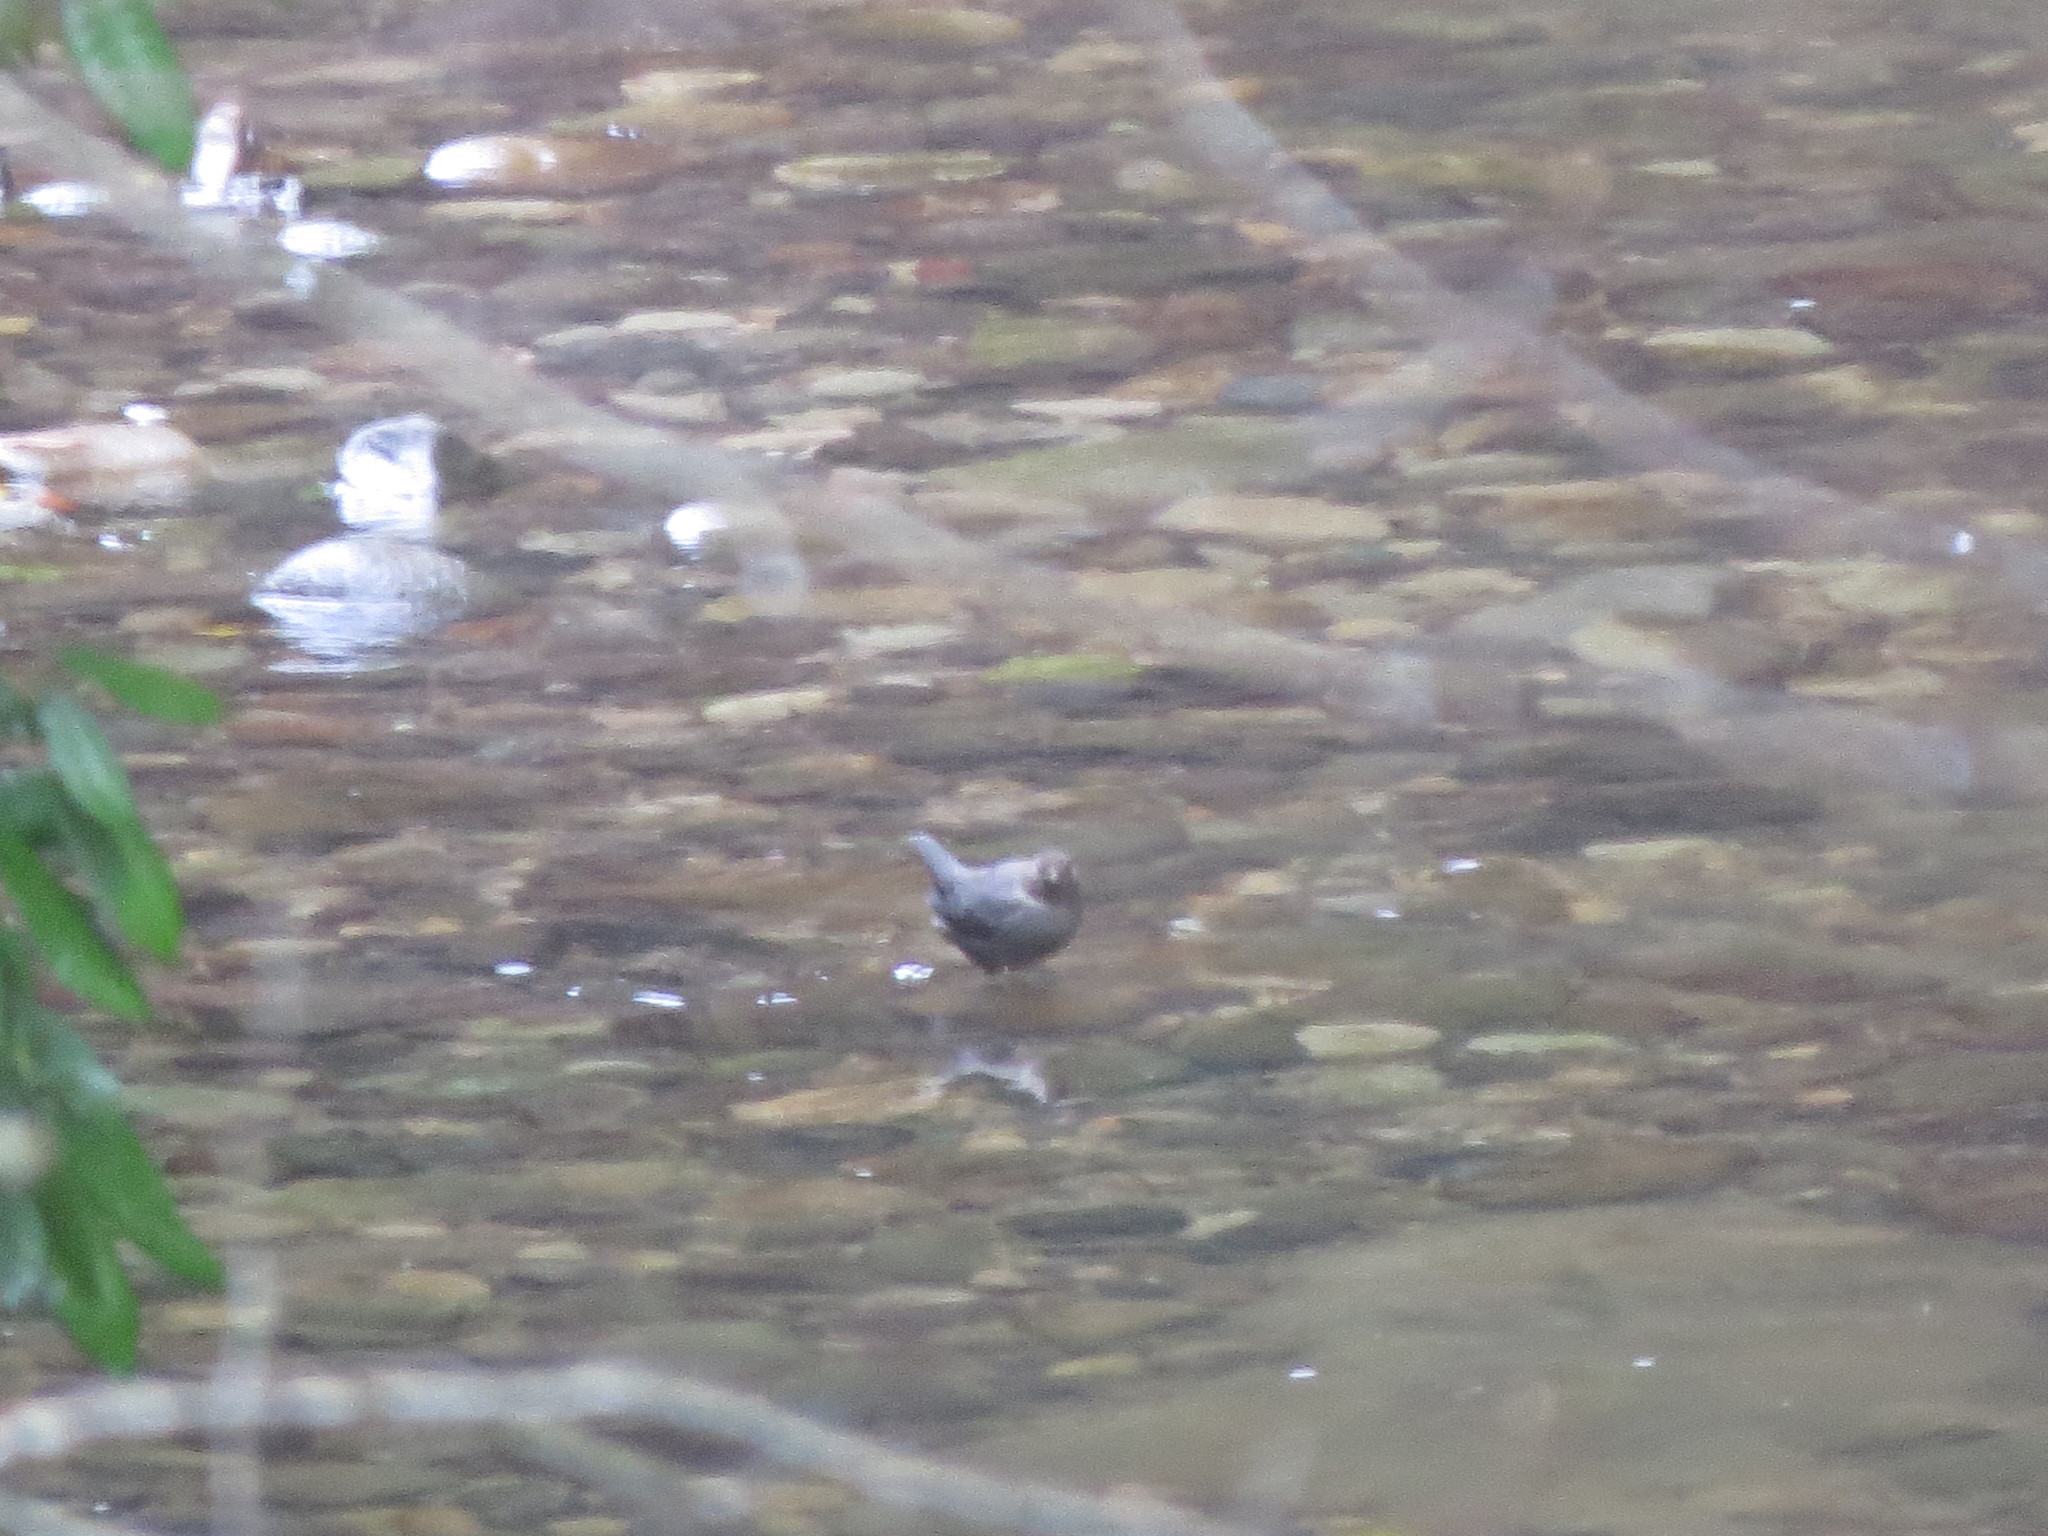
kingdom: Animalia
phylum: Chordata
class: Aves
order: Passeriformes
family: Cinclidae
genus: Cinclus
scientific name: Cinclus mexicanus
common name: American dipper
